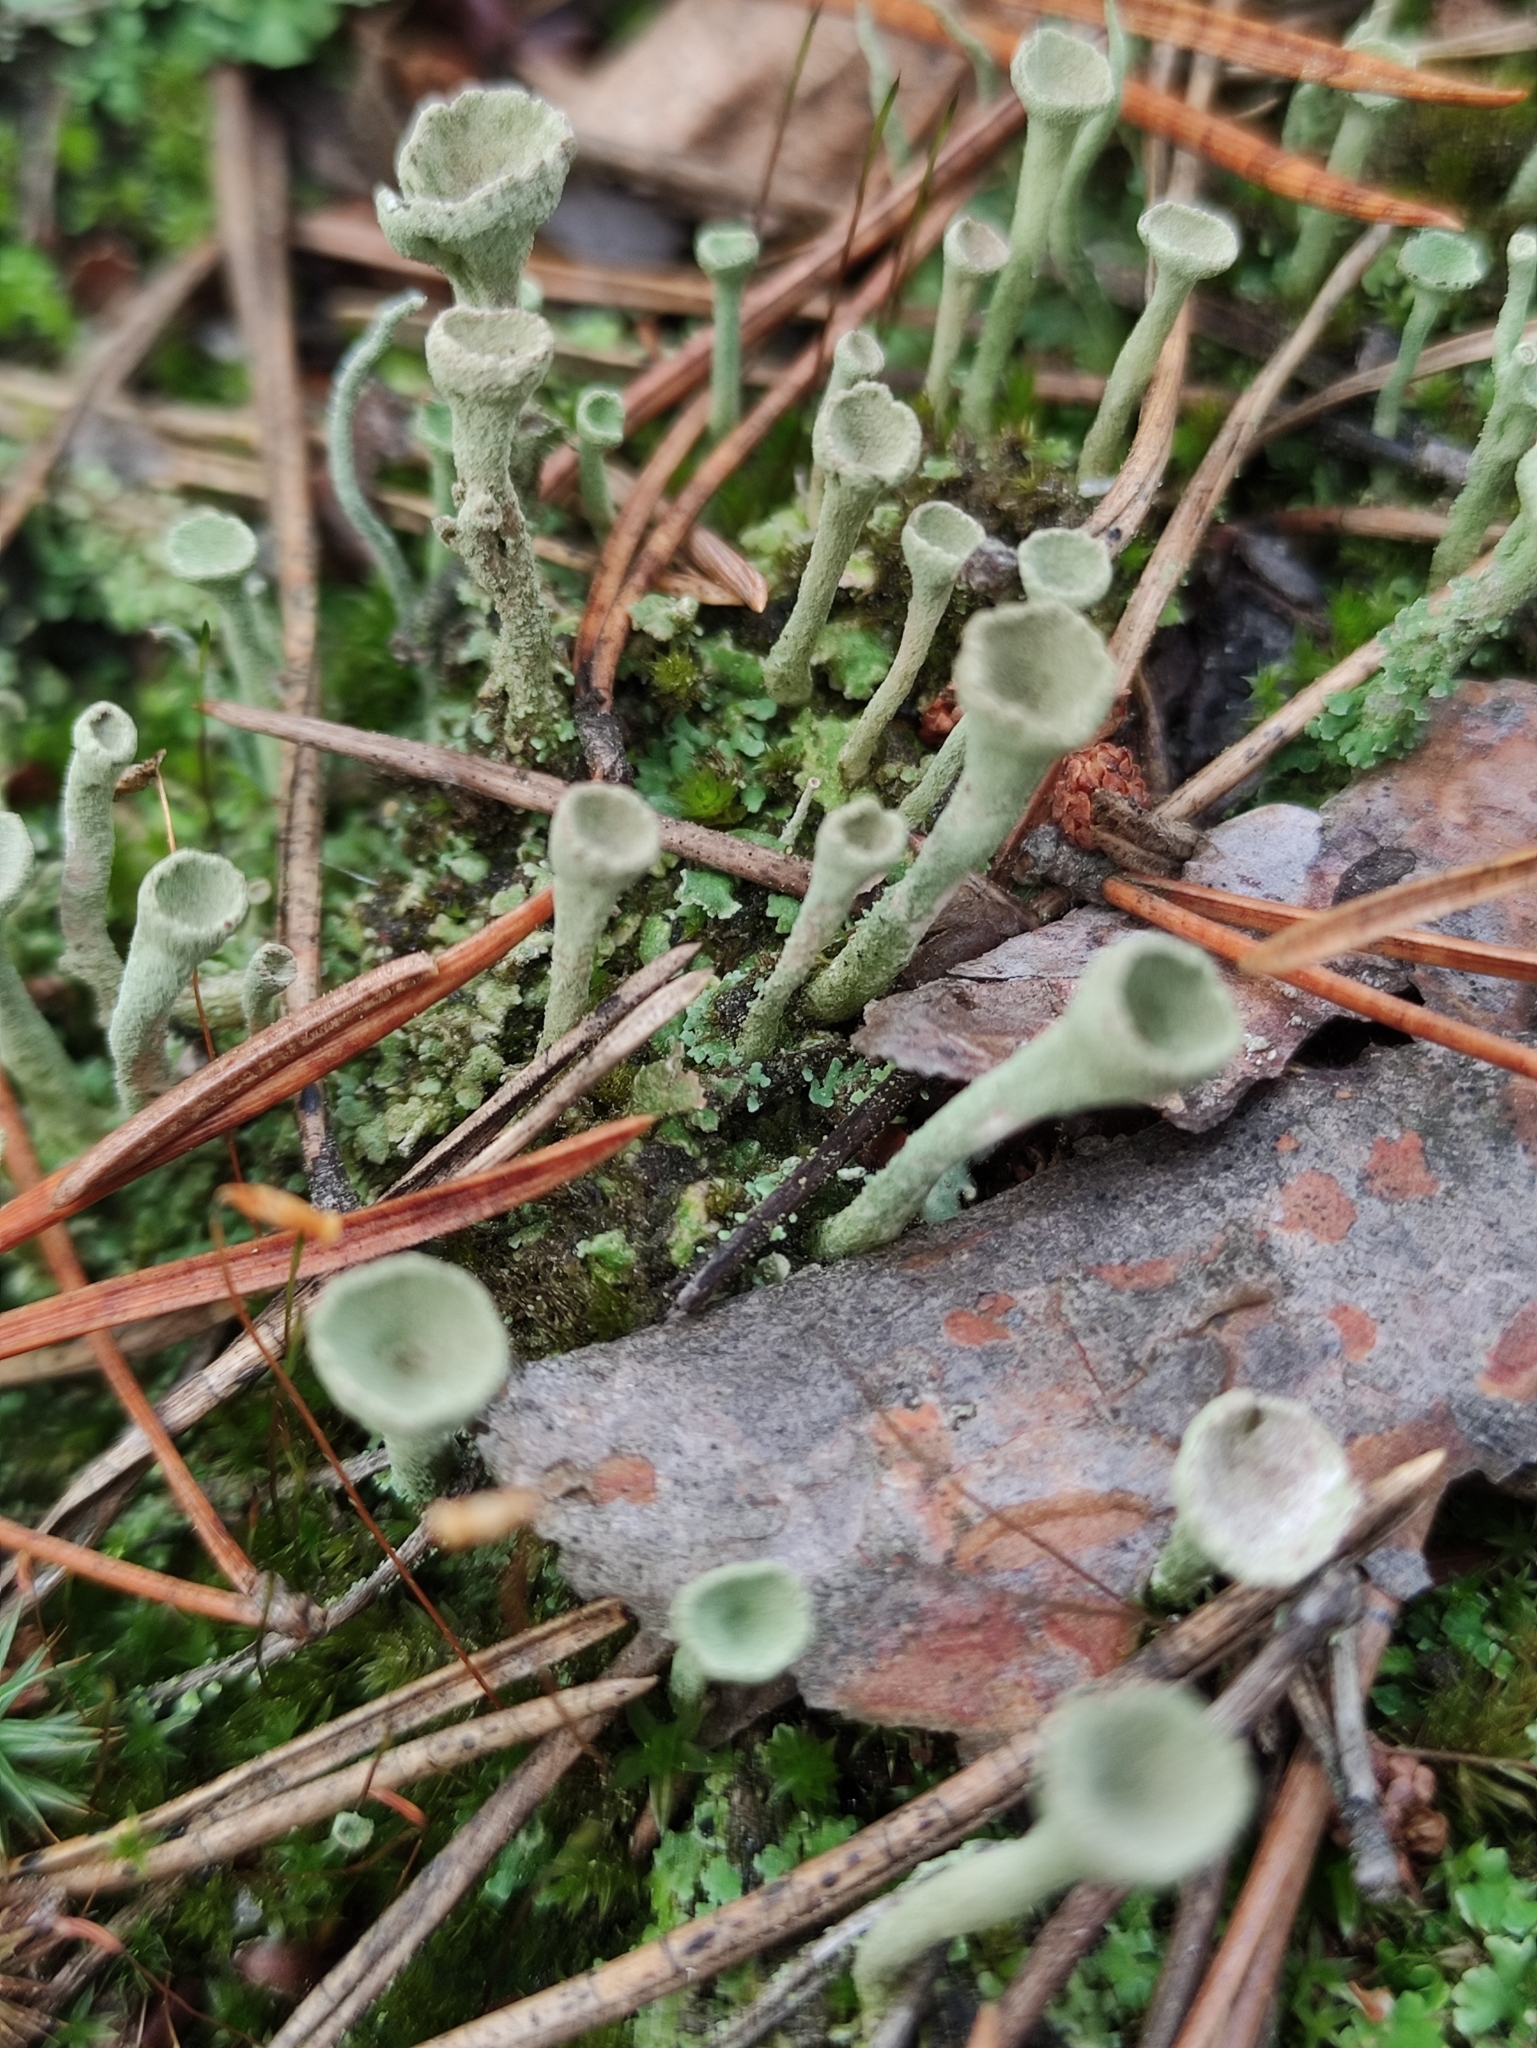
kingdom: Fungi
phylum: Ascomycota
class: Lecanoromycetes
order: Lecanorales
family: Cladoniaceae
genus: Cladonia
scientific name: Cladonia fimbriata
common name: Powdered trumpet lichen
